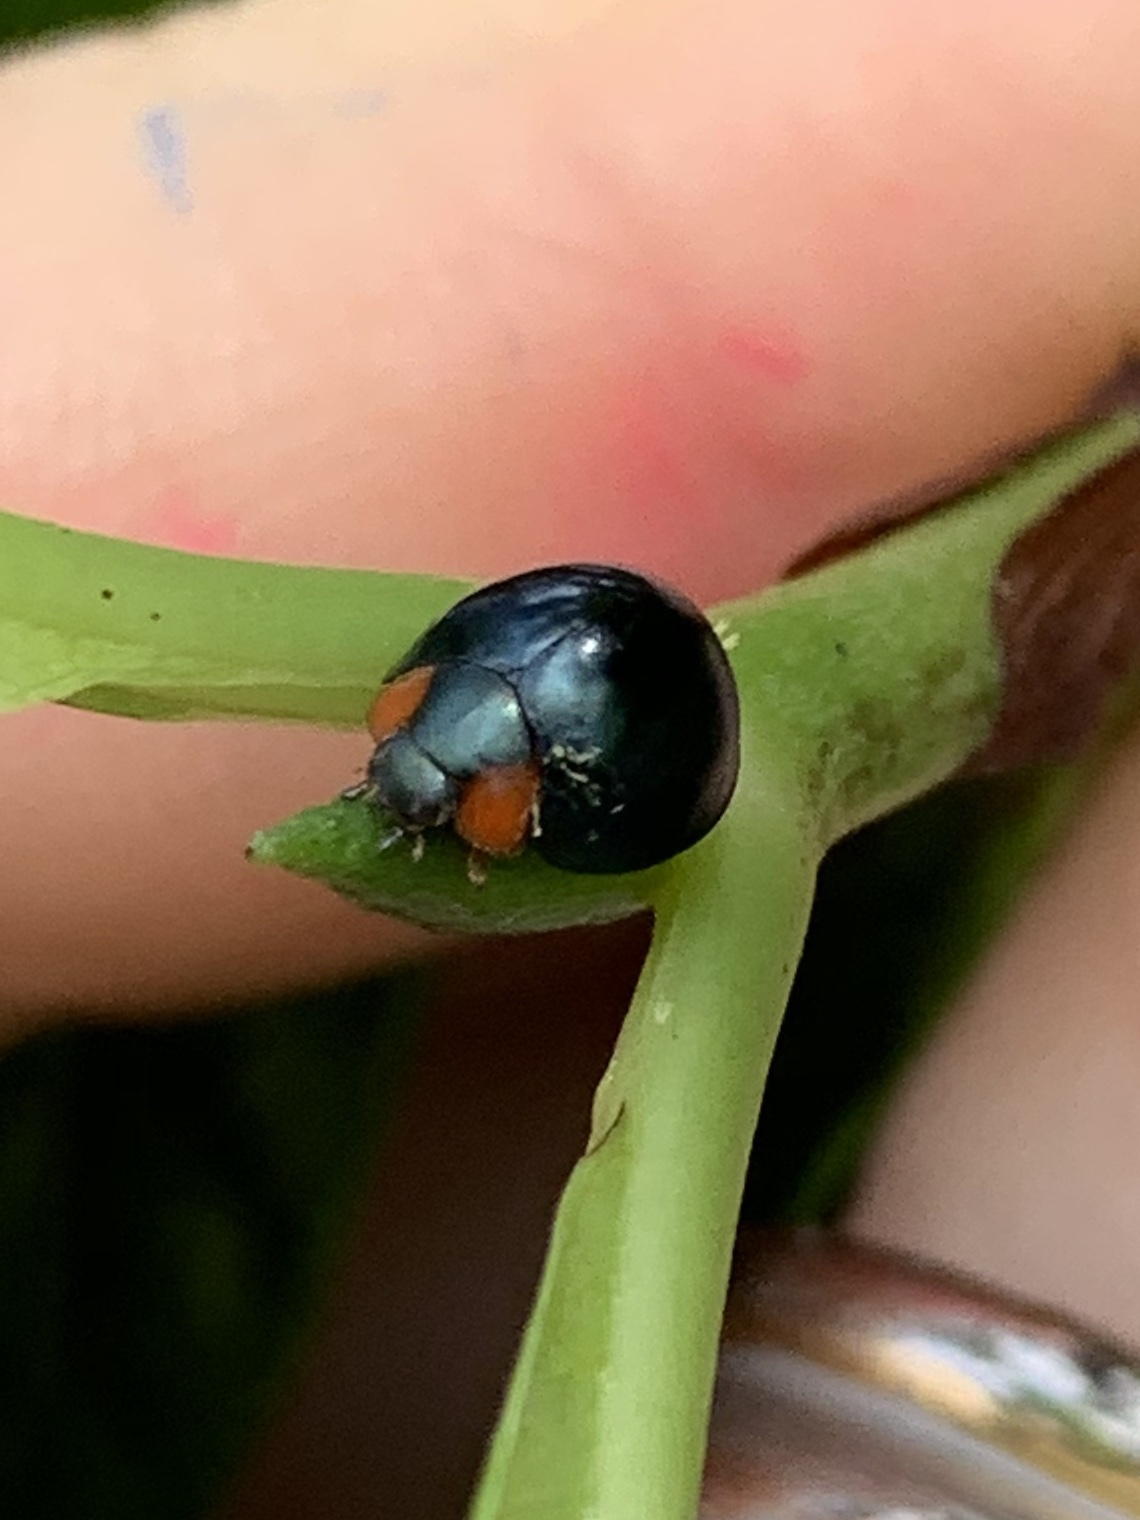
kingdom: Animalia
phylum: Arthropoda
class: Insecta
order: Coleoptera
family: Coccinellidae
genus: Curinus
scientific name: Curinus coeruleus
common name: Ladybird beetle
